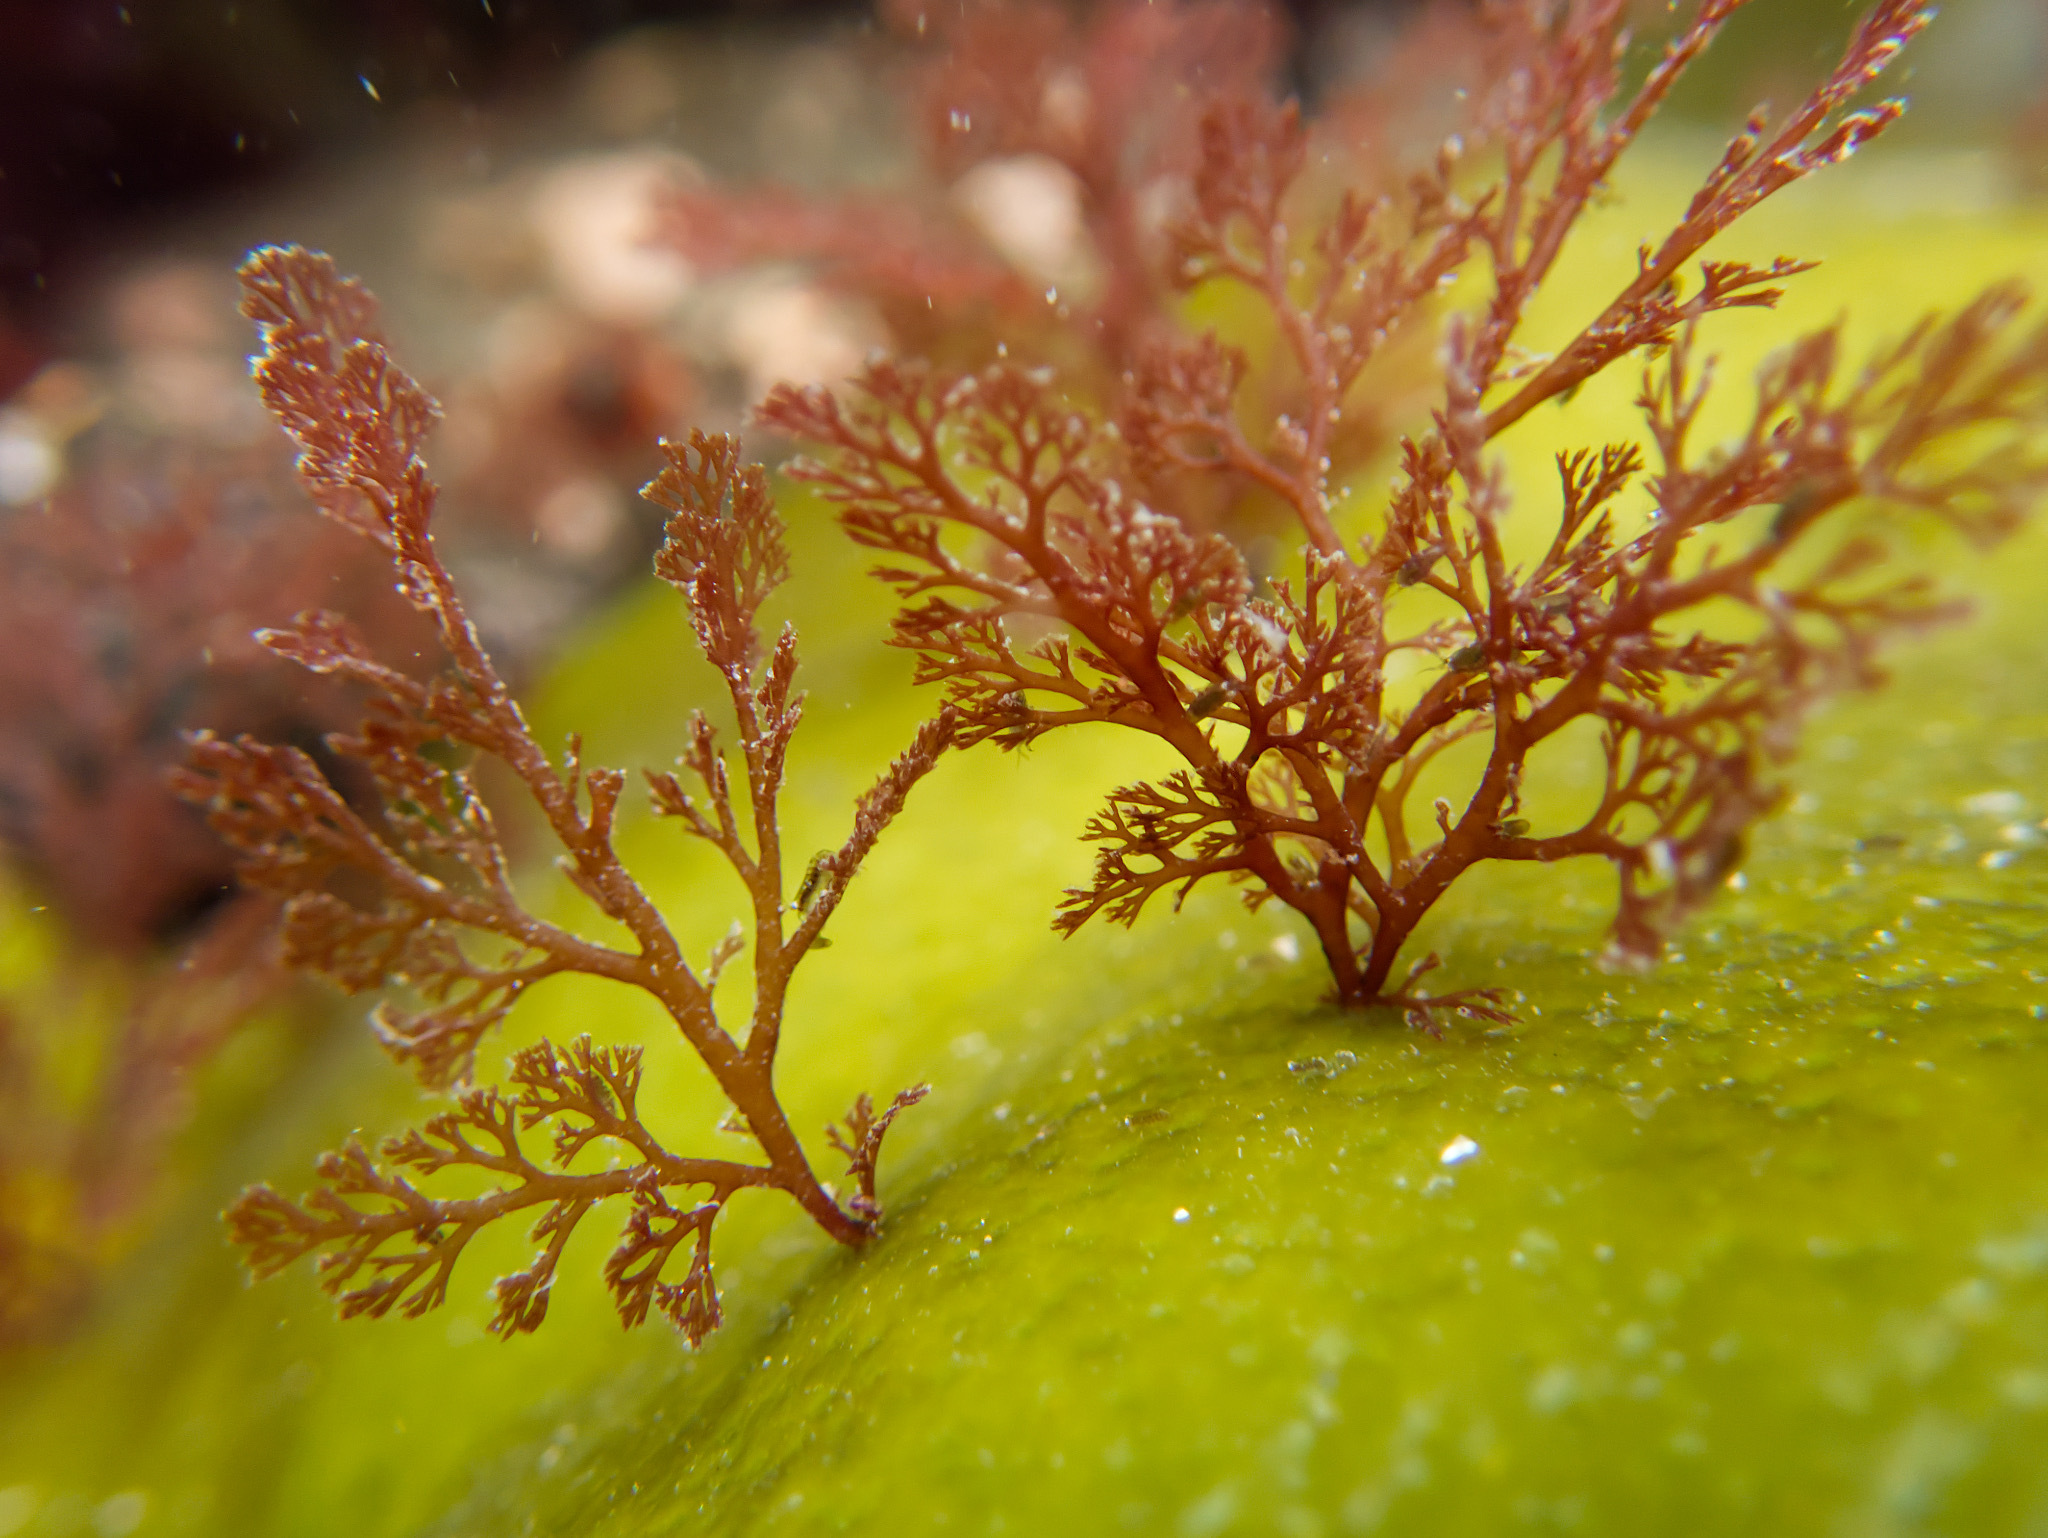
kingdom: Plantae
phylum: Rhodophyta
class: Florideophyceae
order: Ceramiales
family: Ceramiaceae
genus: Microcladia
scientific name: Microcladia coulteri
